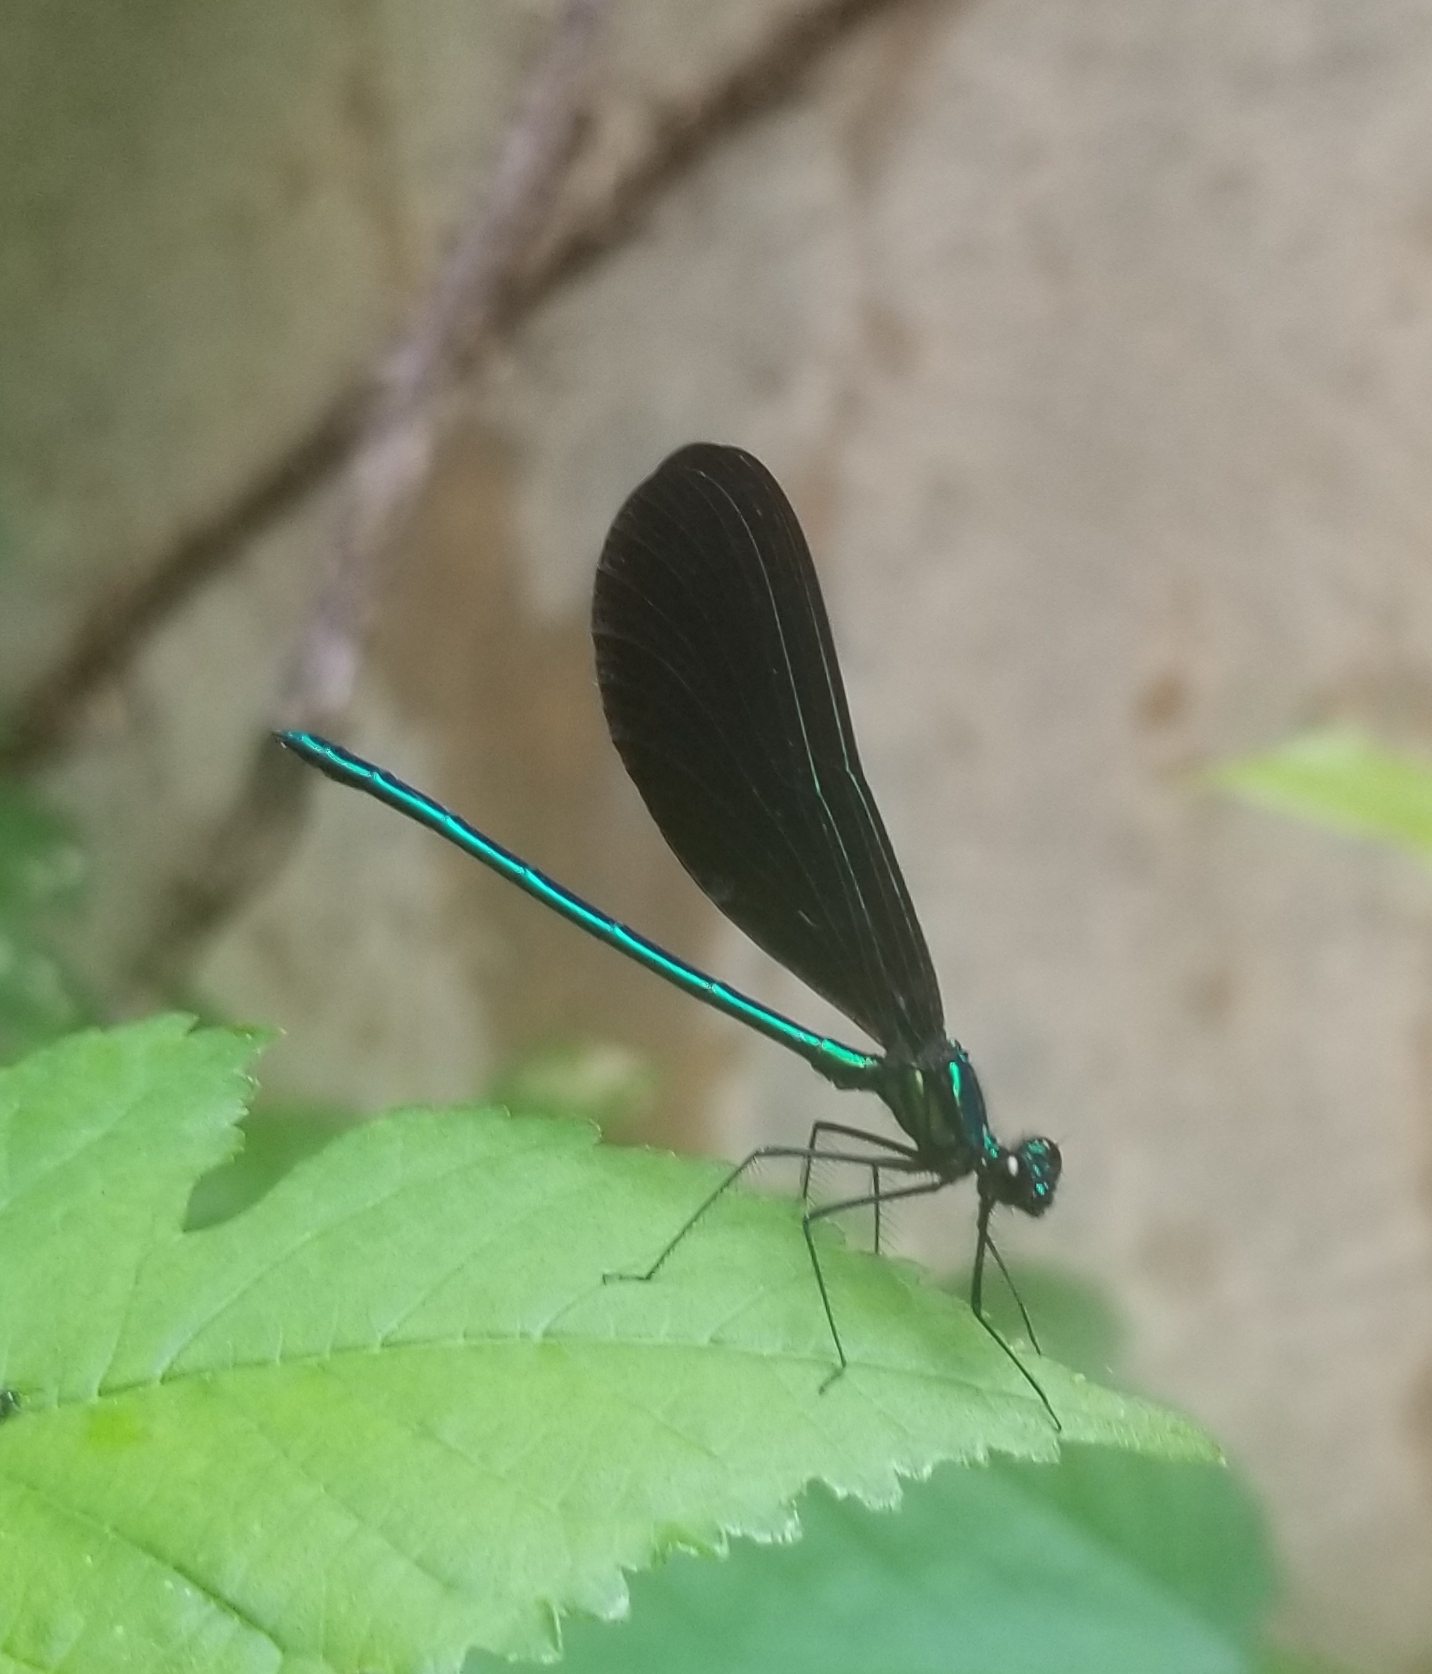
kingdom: Animalia
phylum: Arthropoda
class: Insecta
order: Odonata
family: Calopterygidae
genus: Calopteryx
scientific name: Calopteryx maculata
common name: Ebony jewelwing
